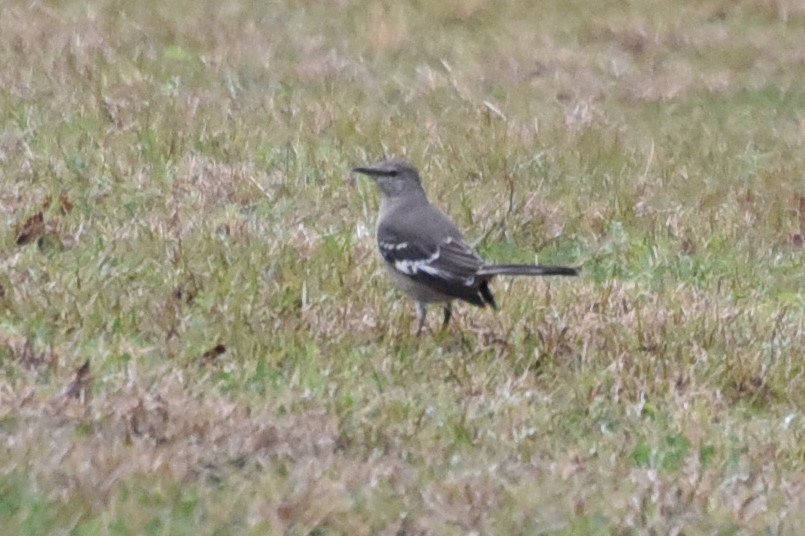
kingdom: Animalia
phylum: Chordata
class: Aves
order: Passeriformes
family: Mimidae
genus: Mimus
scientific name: Mimus polyglottos
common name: Northern mockingbird
